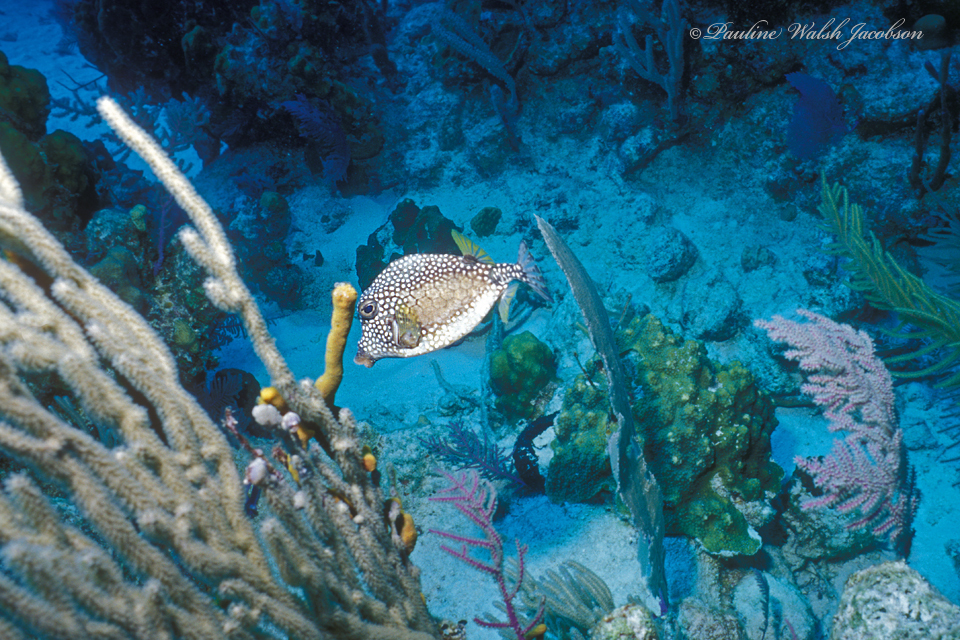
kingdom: Animalia
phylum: Chordata
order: Tetraodontiformes
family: Ostraciidae
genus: Lactophrys
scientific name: Lactophrys triqueter
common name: Smooth trunkfish
